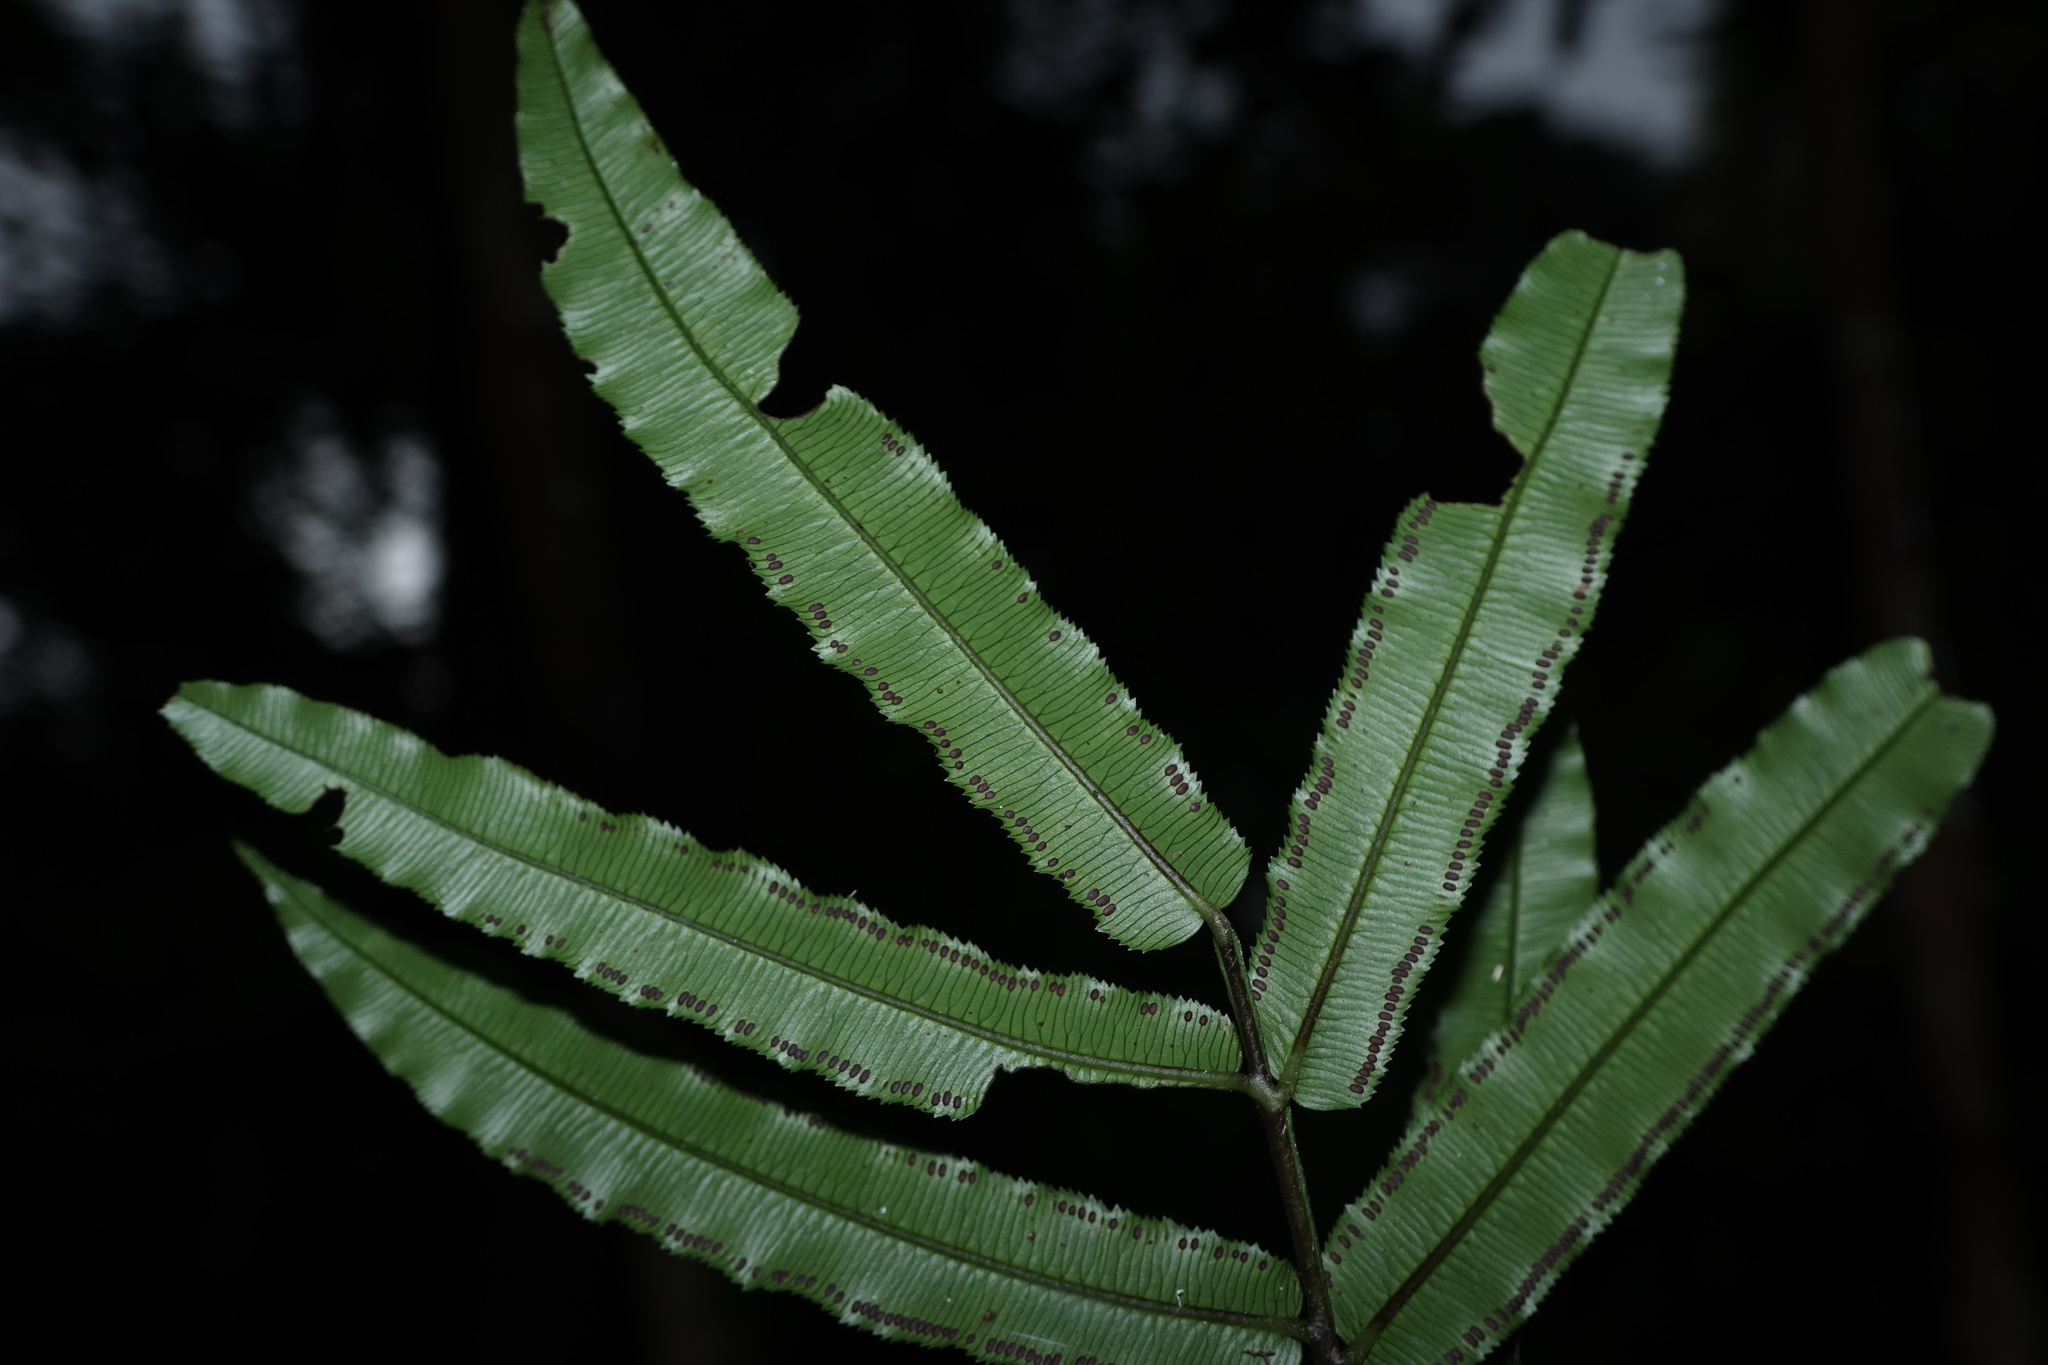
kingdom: Plantae
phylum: Tracheophyta
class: Polypodiopsida
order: Marattiales
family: Marattiaceae
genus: Ptisana
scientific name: Ptisana fraxinea
